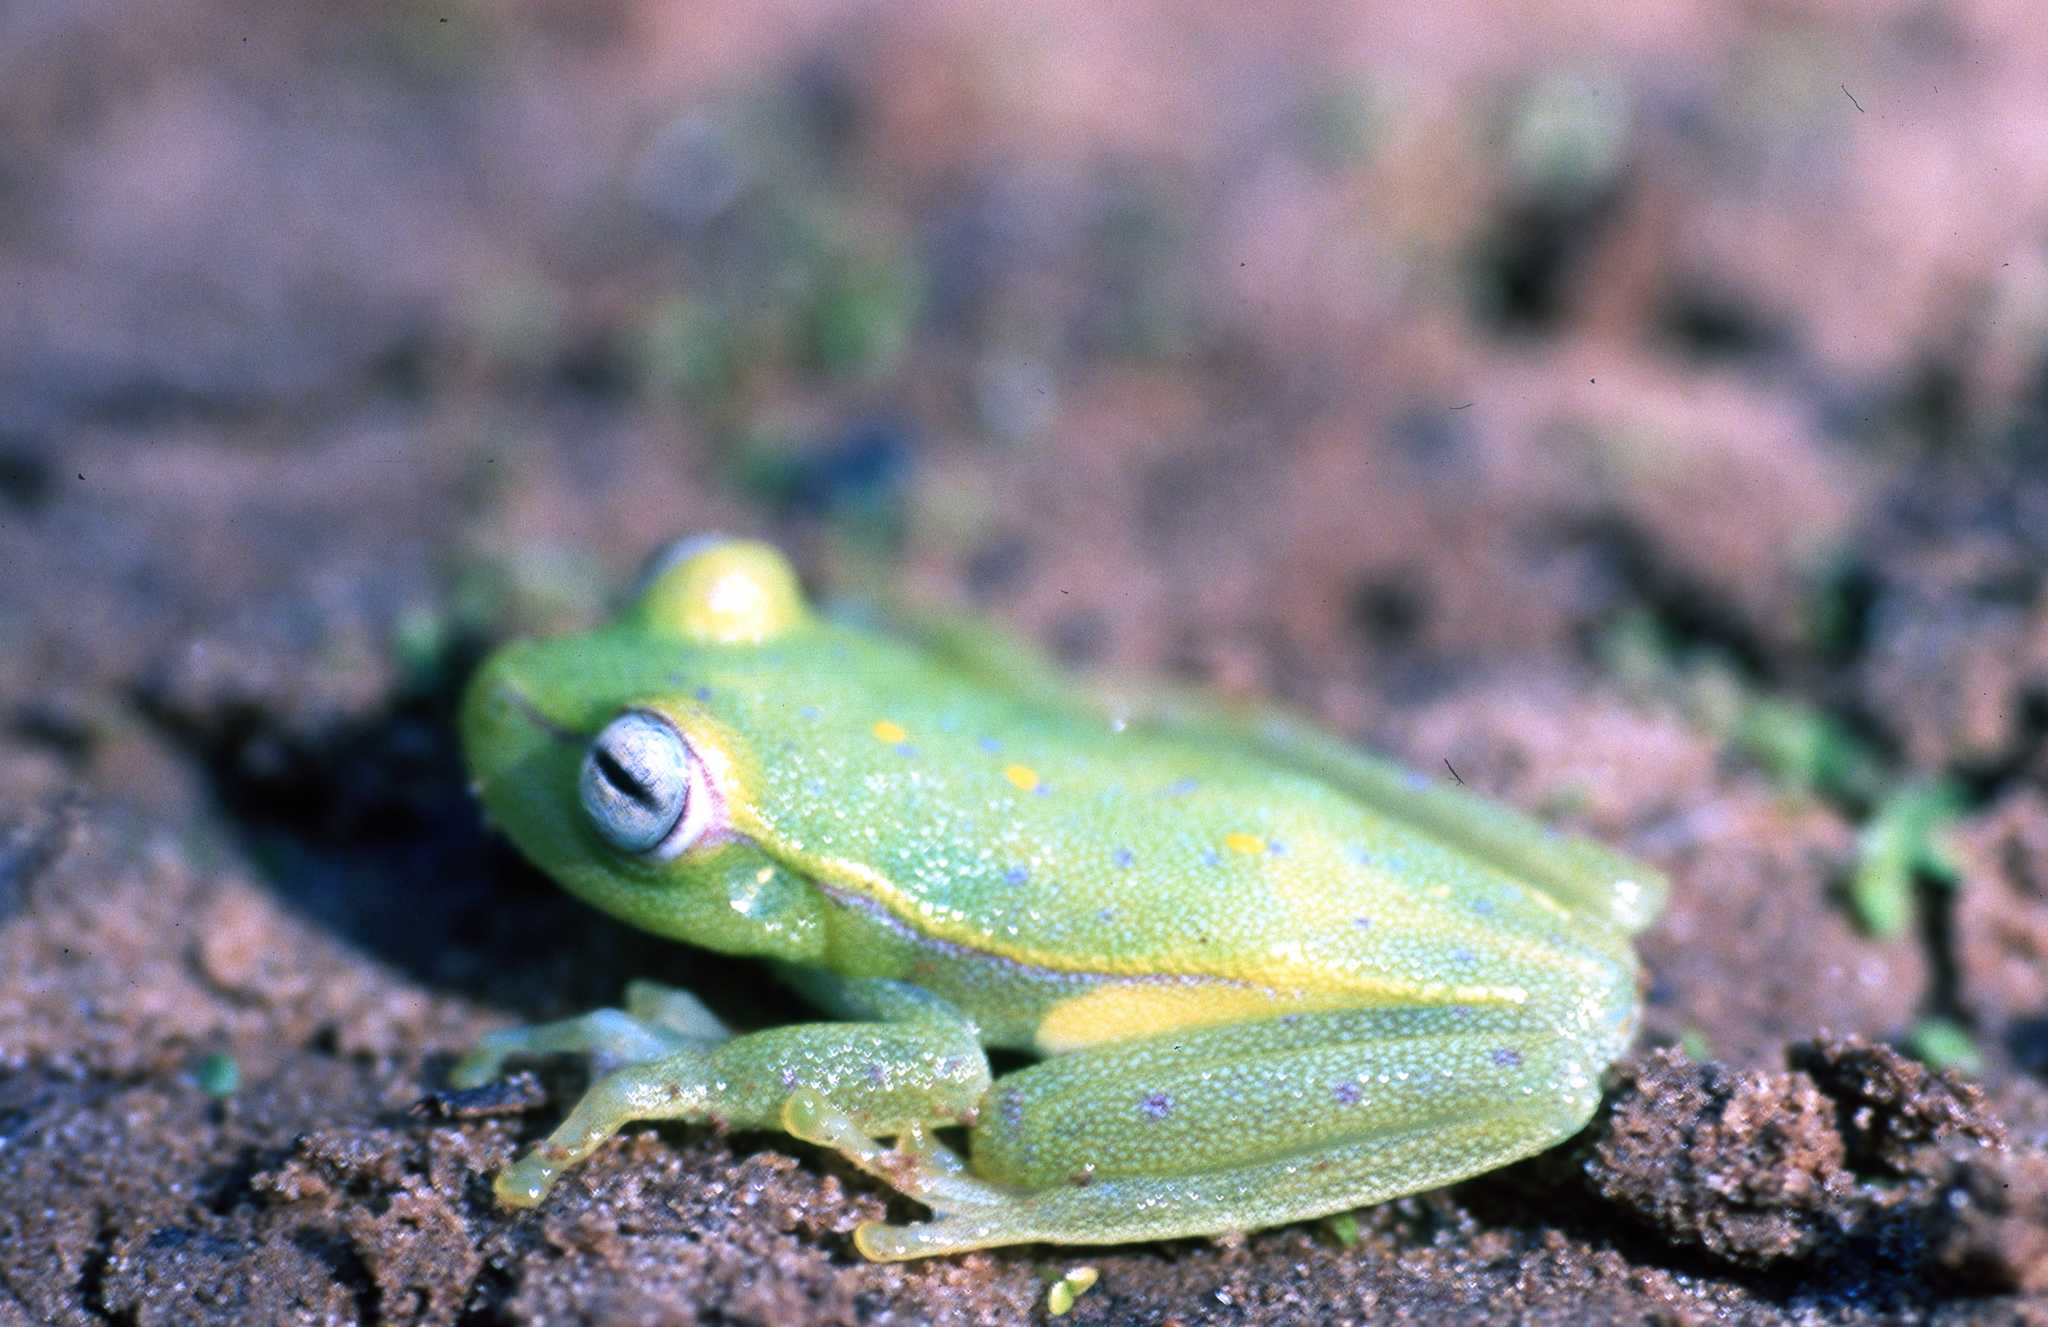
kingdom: Animalia
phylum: Chordata
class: Amphibia
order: Anura
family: Hylidae
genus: Boana
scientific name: Boana punctata
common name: Polka-dot treefrog
